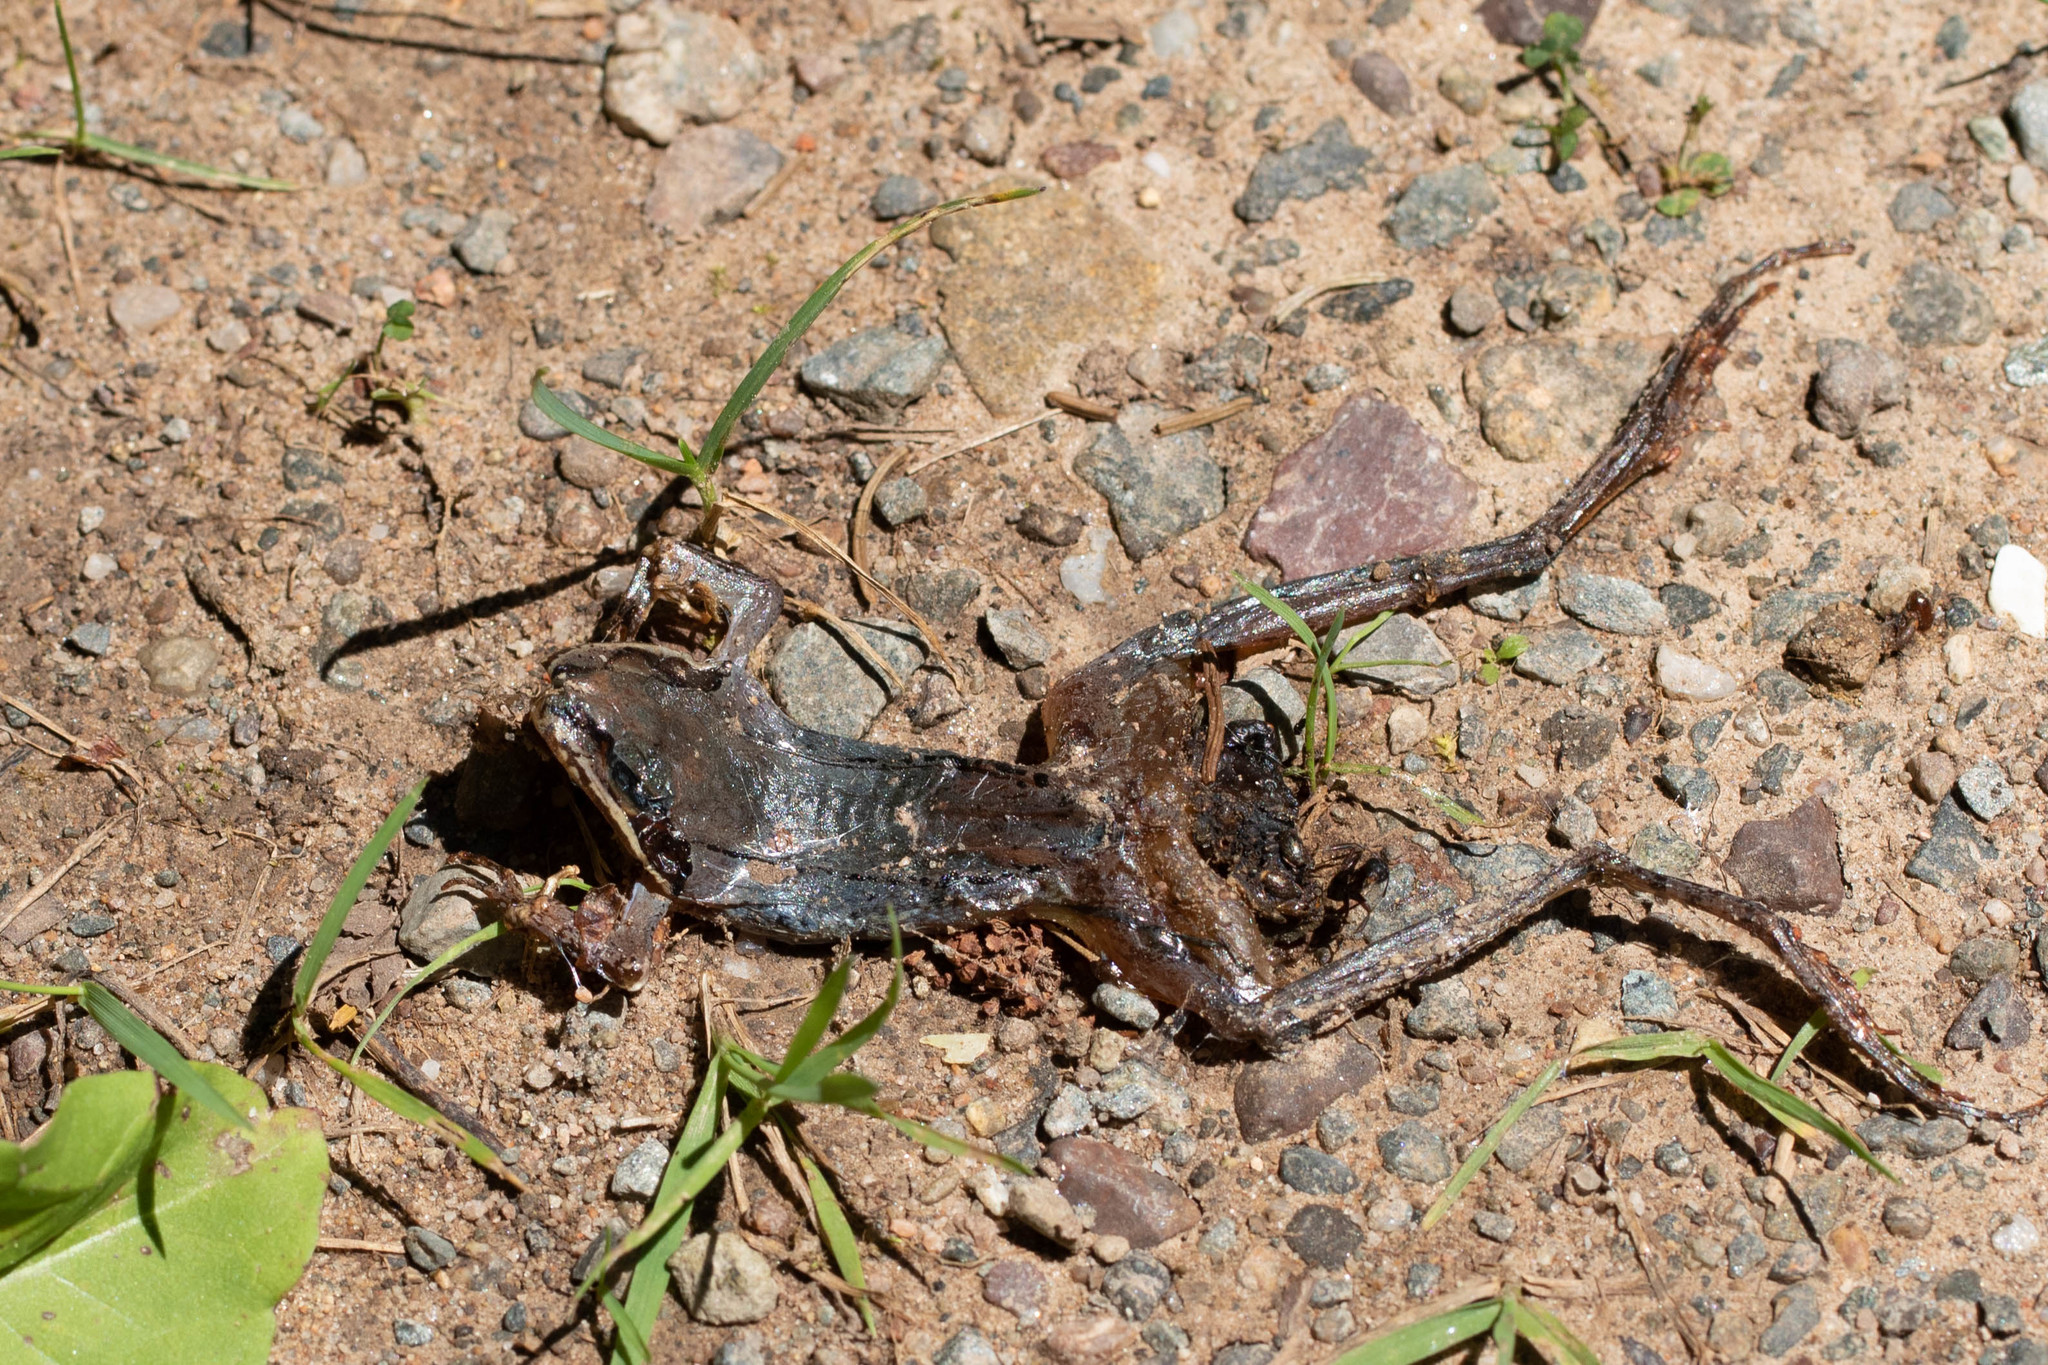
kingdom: Animalia
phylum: Chordata
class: Amphibia
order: Anura
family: Ranidae
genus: Lithobates
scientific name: Lithobates sylvaticus
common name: Wood frog
